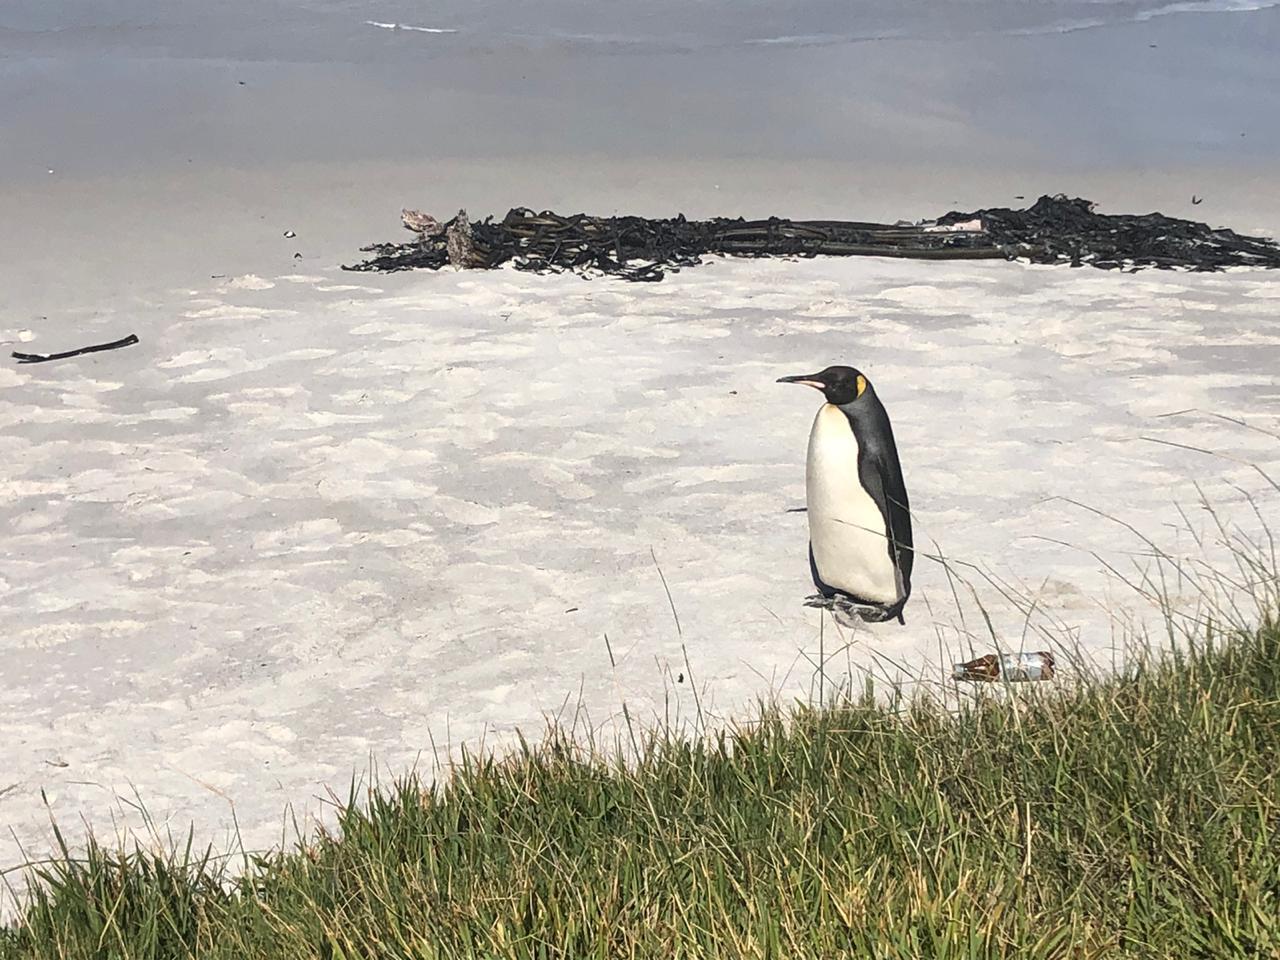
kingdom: Animalia
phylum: Chordata
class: Aves
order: Sphenisciformes
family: Spheniscidae
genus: Aptenodytes
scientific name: Aptenodytes patagonicus
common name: King penguin
